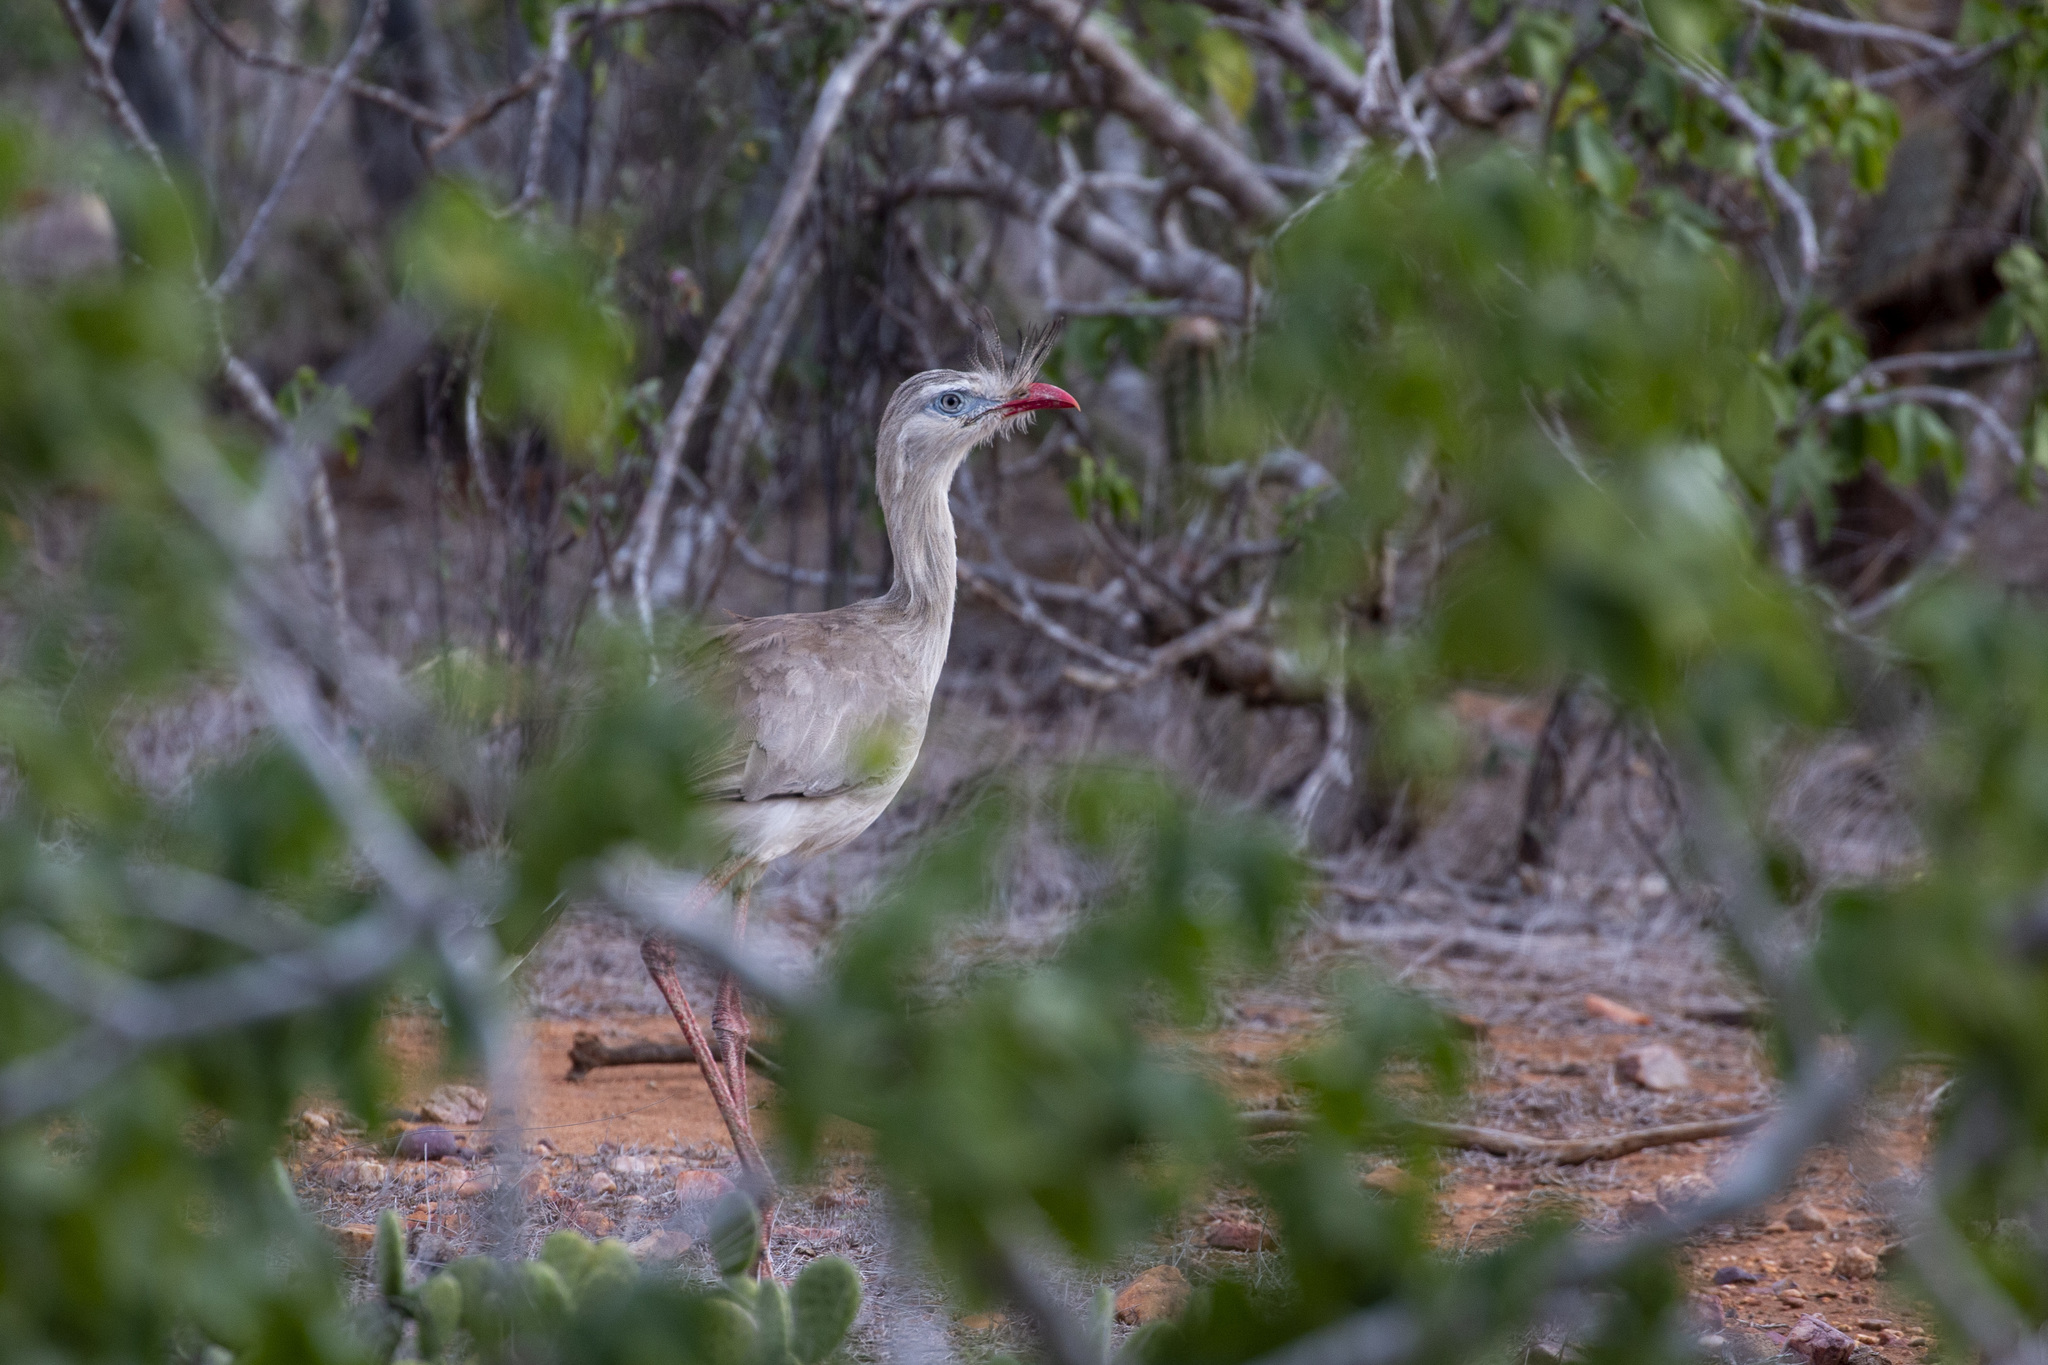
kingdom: Animalia
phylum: Chordata
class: Aves
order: Cariamiformes
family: Cariamidae
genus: Cariama
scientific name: Cariama cristata
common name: Red-legged seriema
